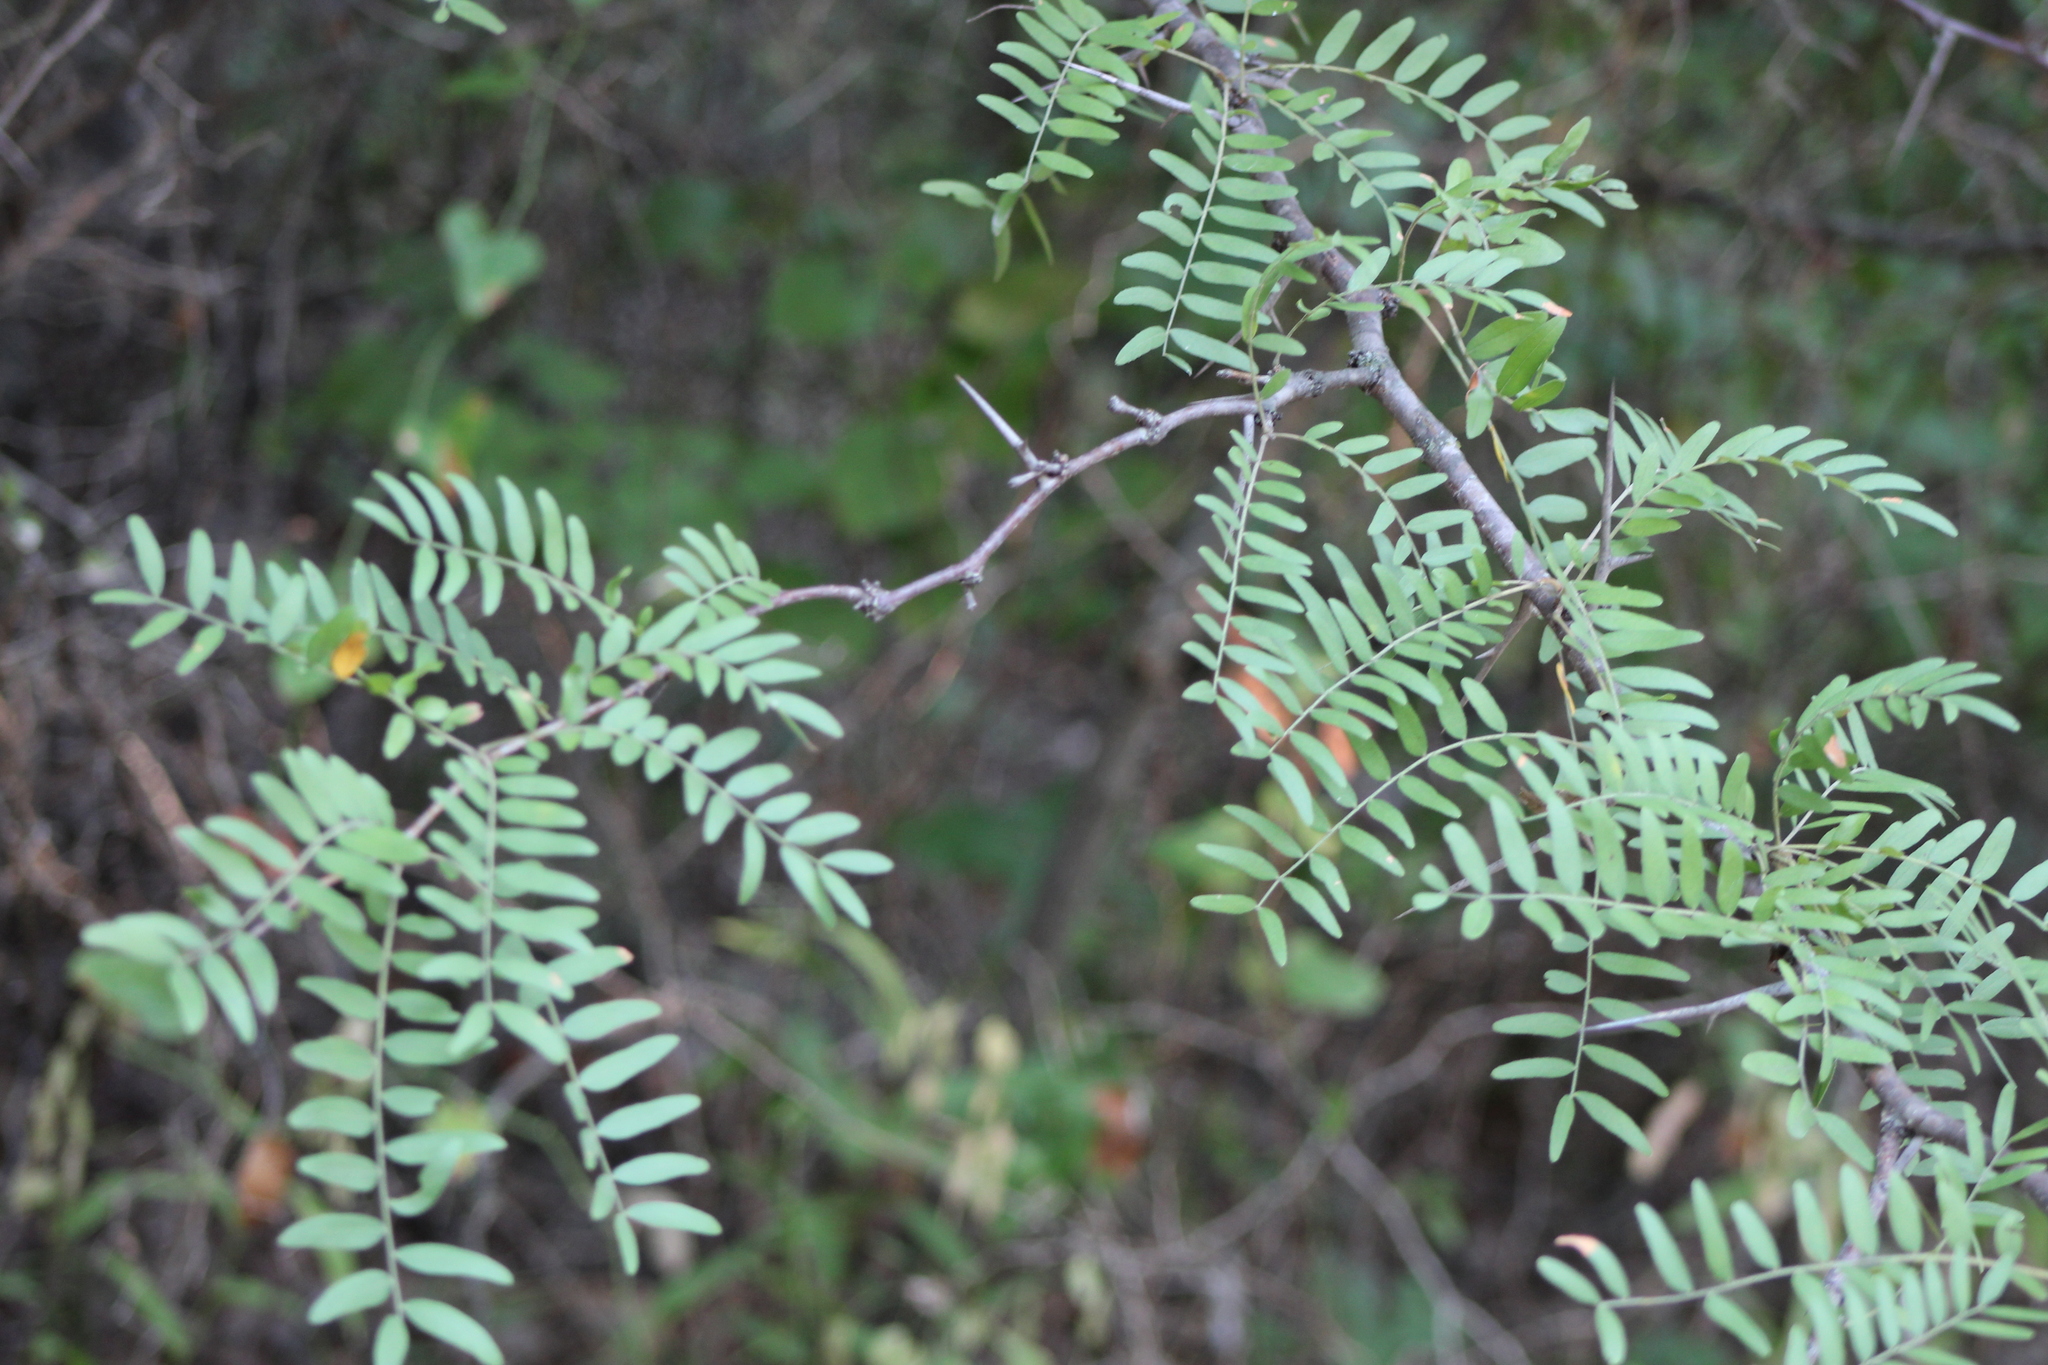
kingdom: Plantae
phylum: Tracheophyta
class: Magnoliopsida
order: Fabales
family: Fabaceae
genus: Gleditsia
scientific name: Gleditsia triacanthos
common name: Common honeylocust
